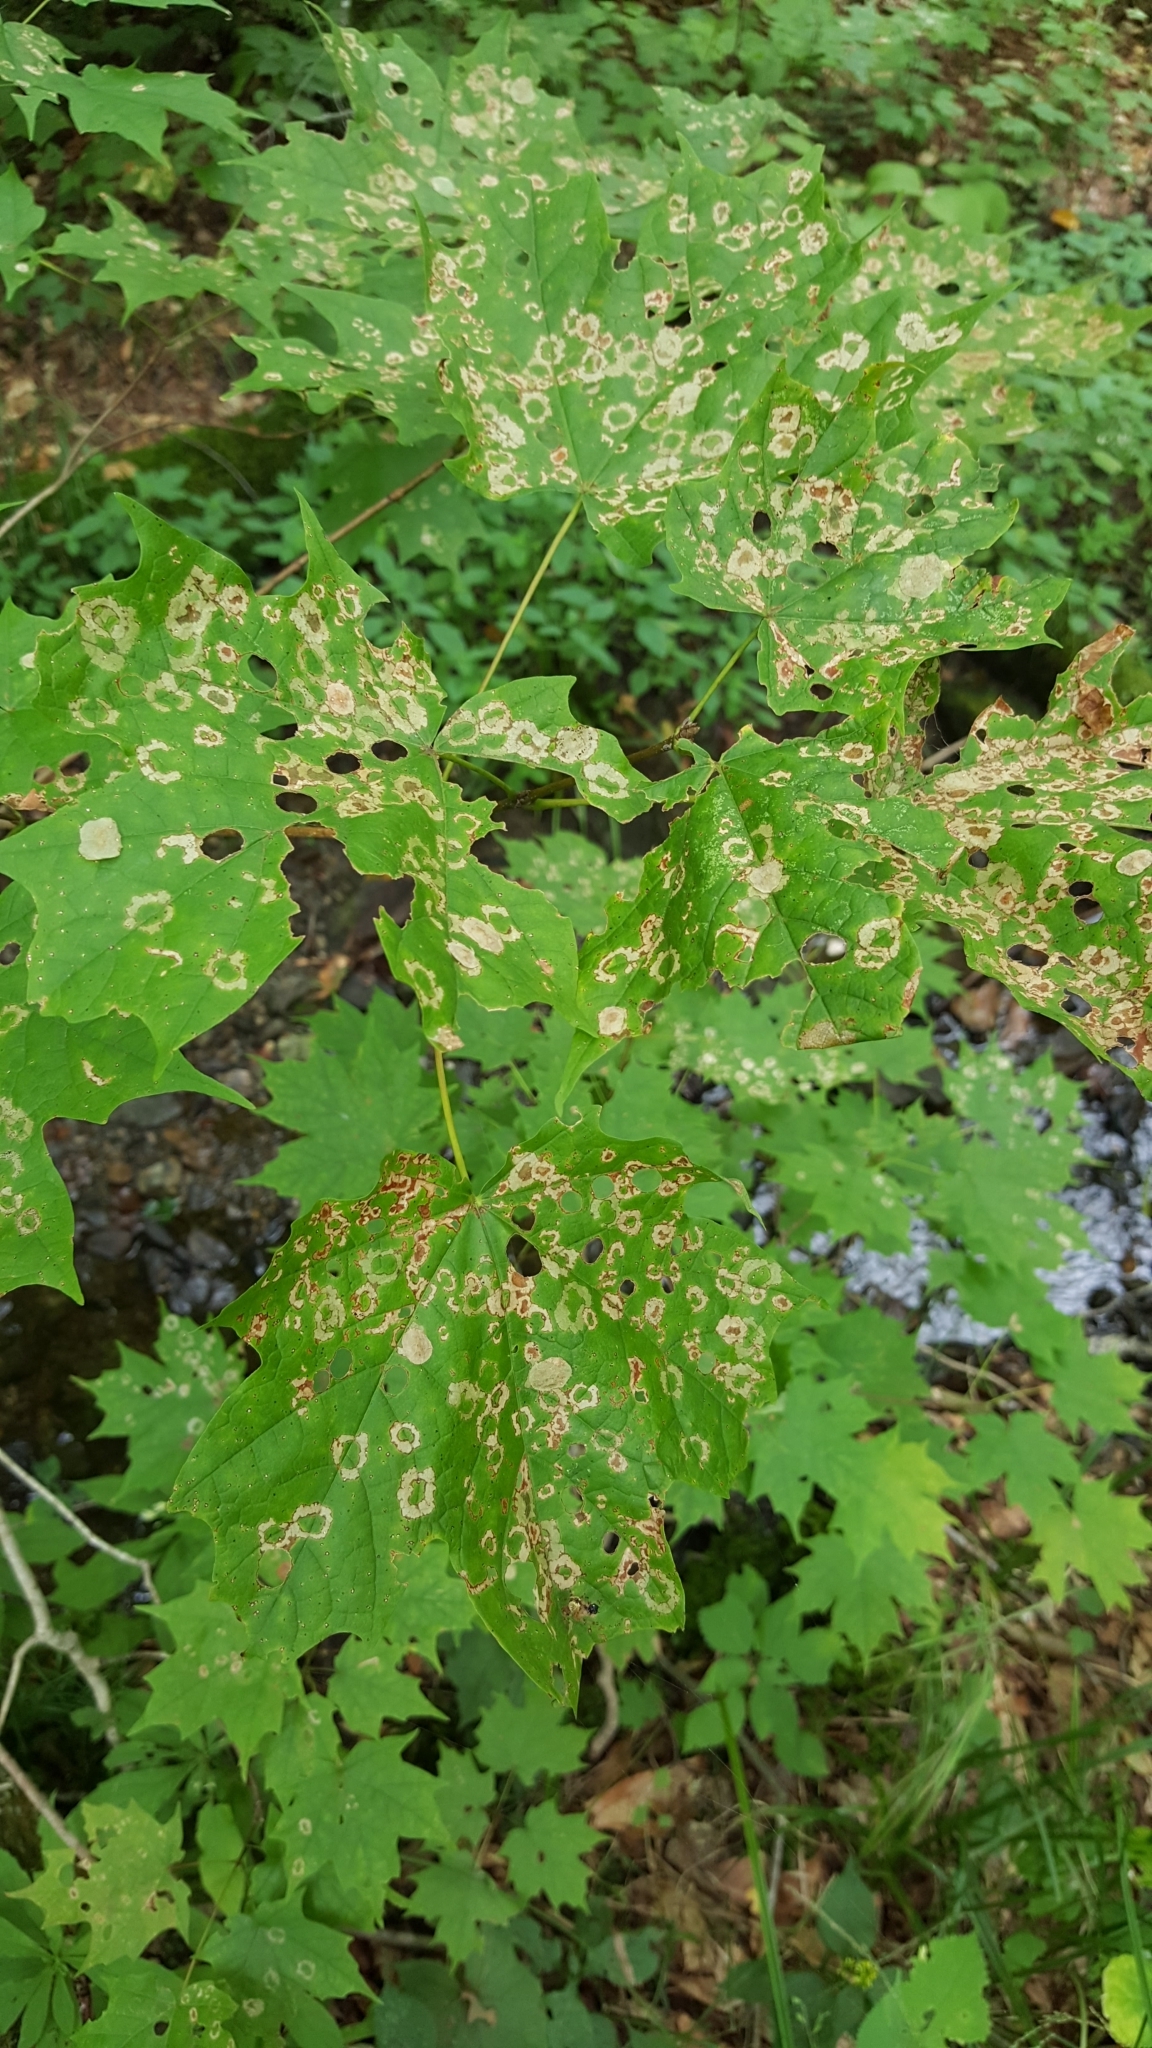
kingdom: Plantae
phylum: Tracheophyta
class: Magnoliopsida
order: Sapindales
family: Sapindaceae
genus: Acer
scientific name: Acer saccharum
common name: Sugar maple
